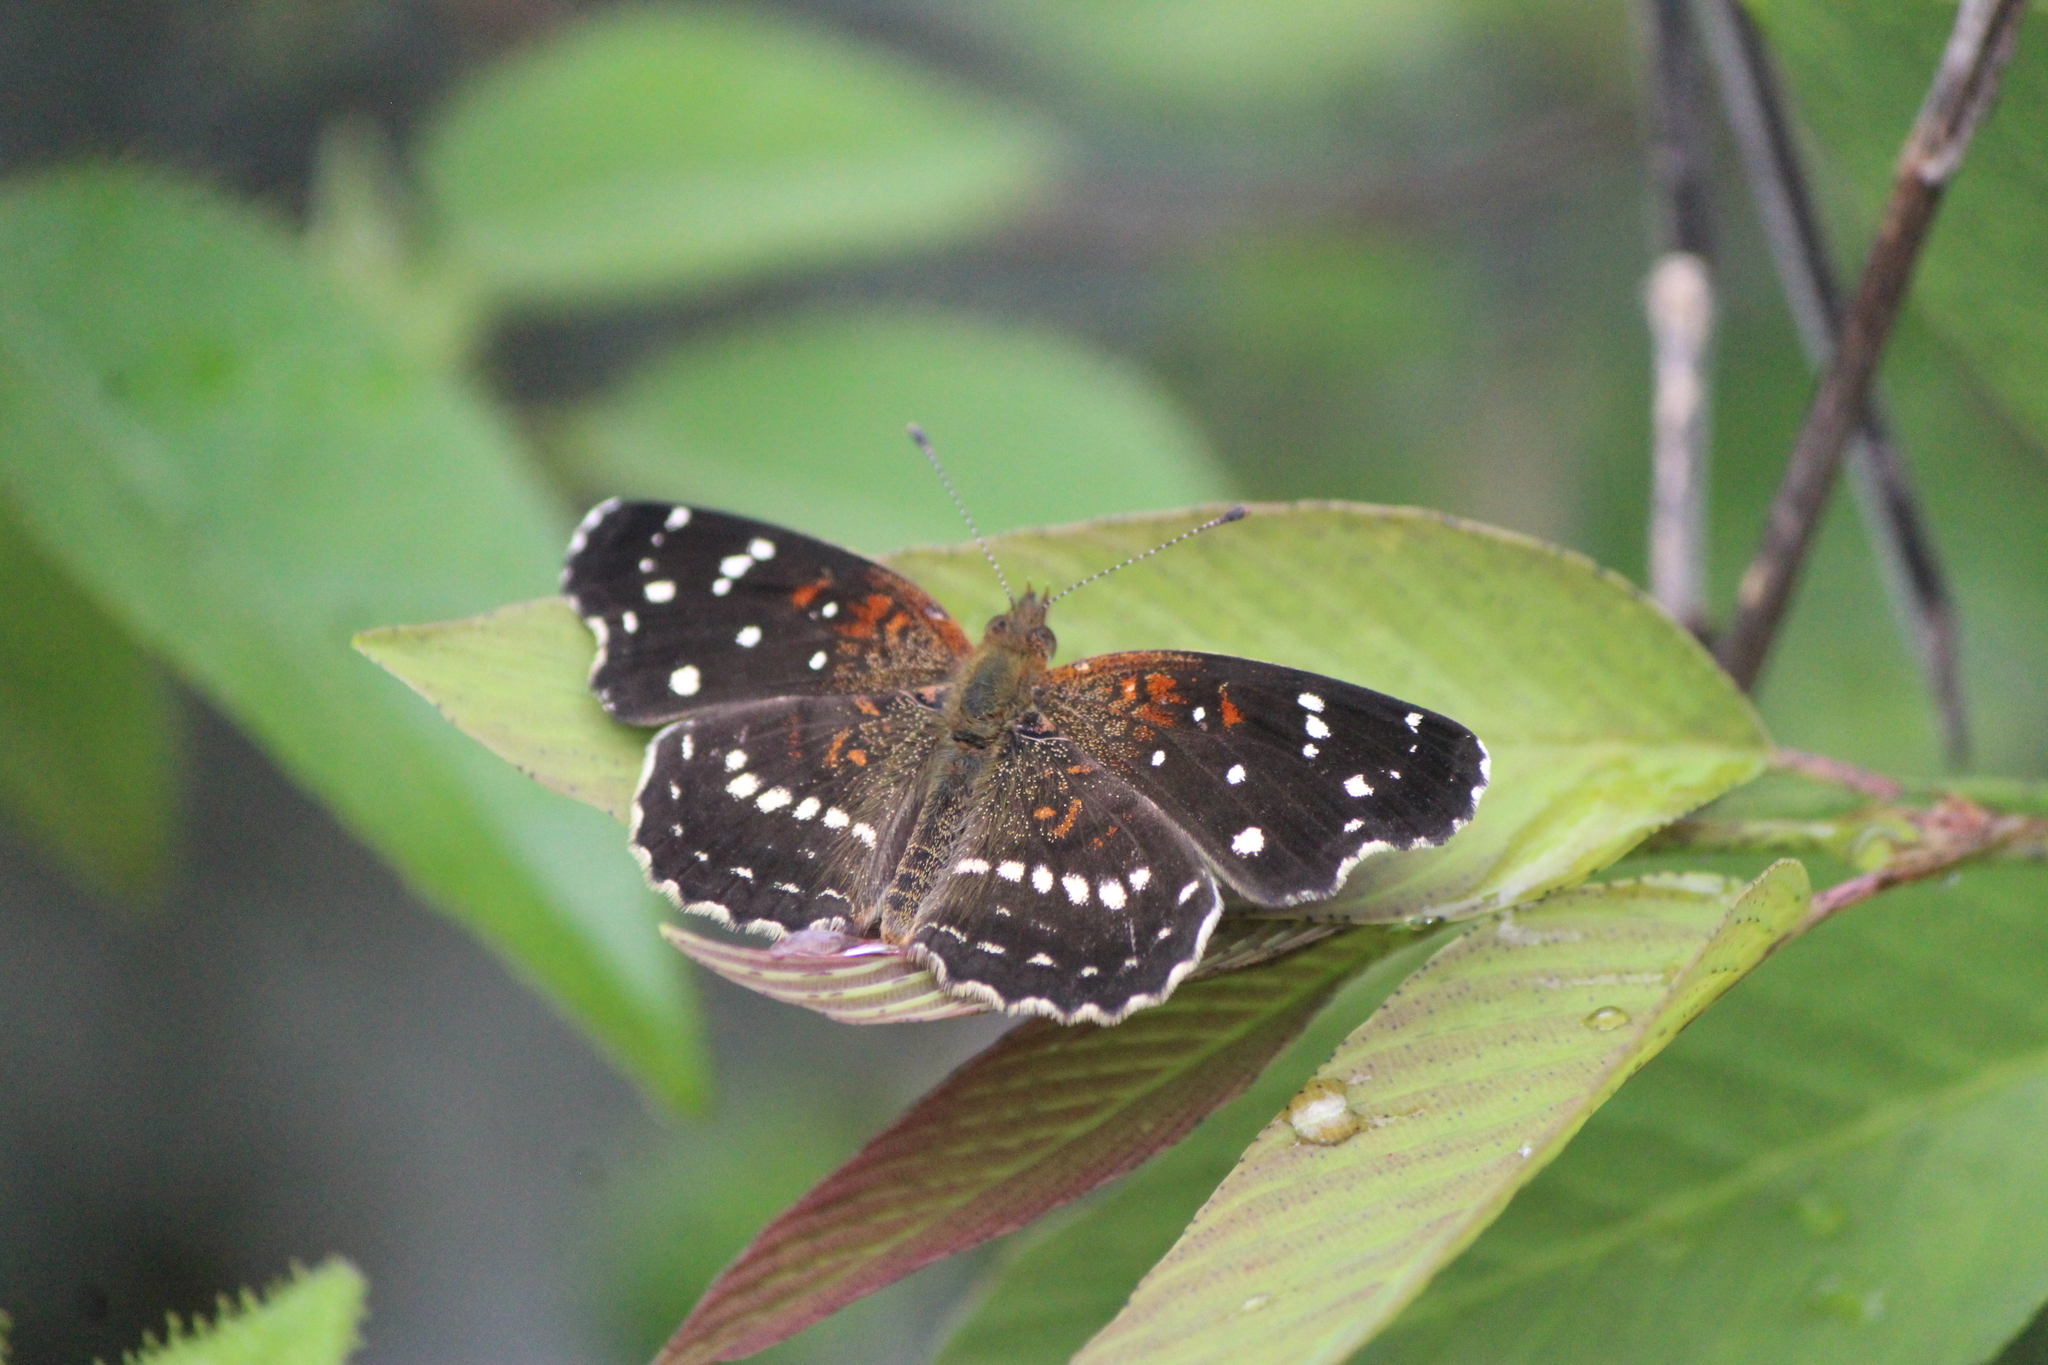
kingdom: Animalia
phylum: Arthropoda
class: Insecta
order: Lepidoptera
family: Nymphalidae
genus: Anthanassa
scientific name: Anthanassa texana
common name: Texan crescent
